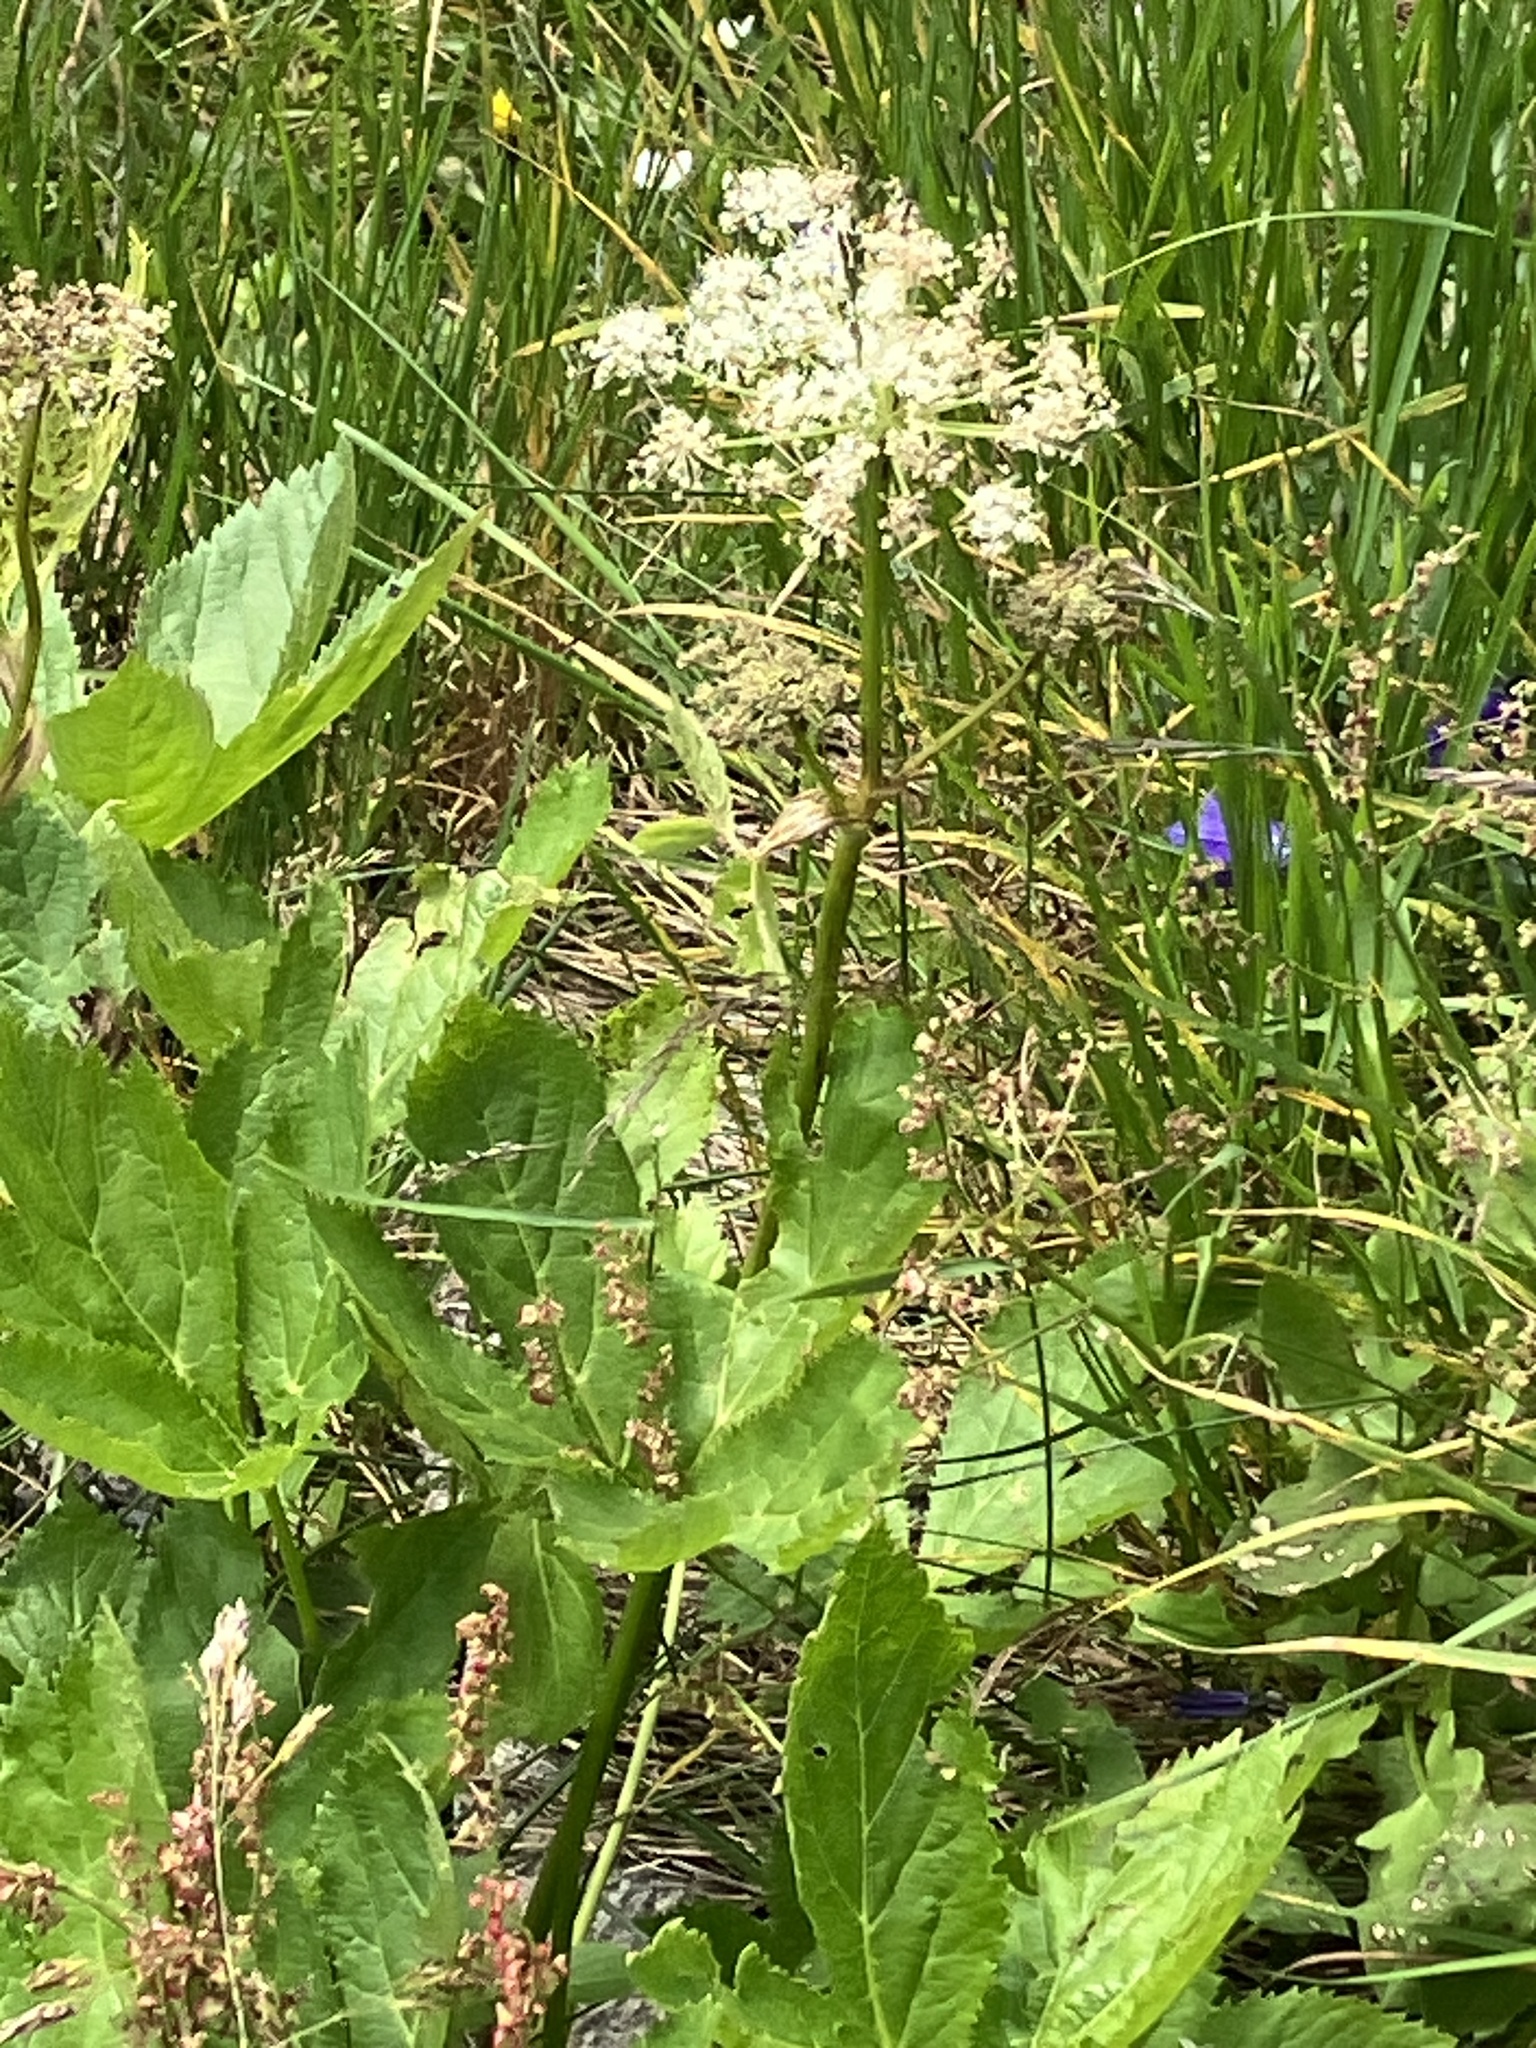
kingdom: Plantae
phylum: Tracheophyta
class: Magnoliopsida
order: Apiales
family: Apiaceae
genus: Imperatoria
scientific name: Imperatoria ostruthium
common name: Masterwort
